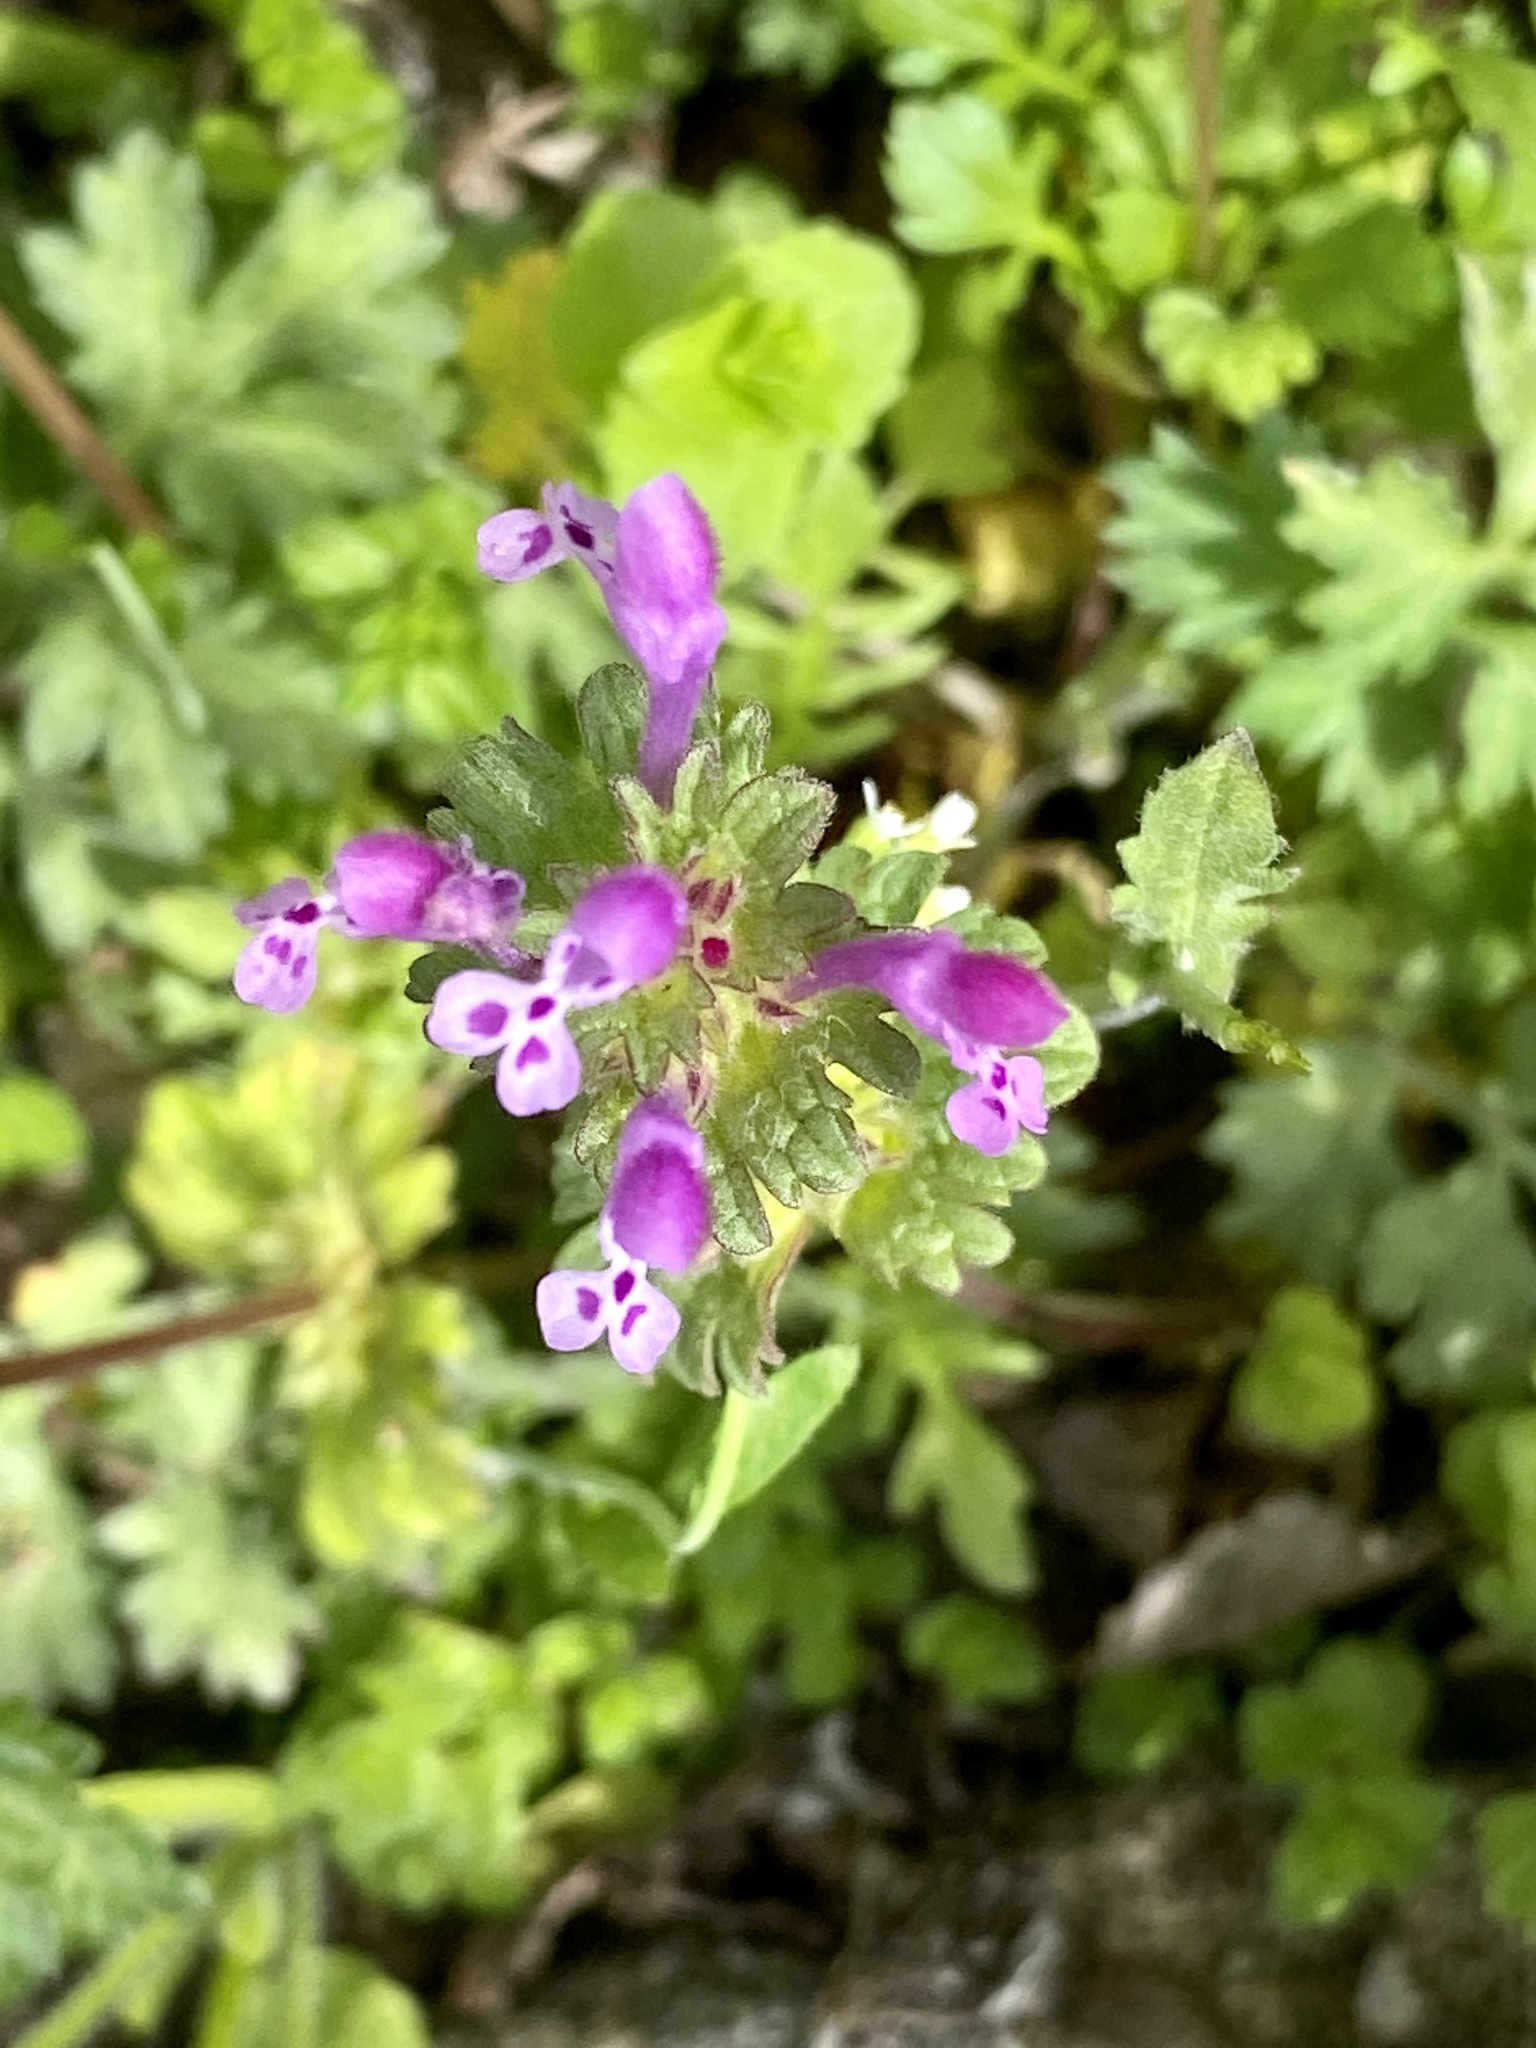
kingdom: Plantae
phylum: Tracheophyta
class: Magnoliopsida
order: Lamiales
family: Lamiaceae
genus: Lamium
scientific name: Lamium amplexicaule
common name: Henbit dead-nettle
